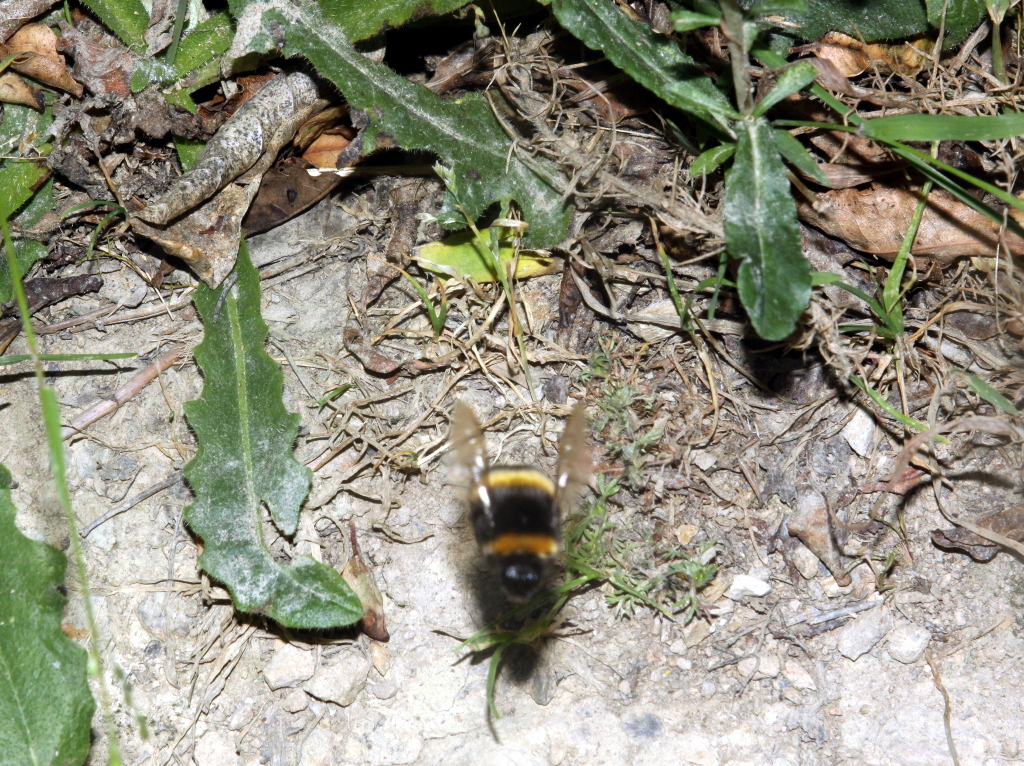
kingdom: Animalia
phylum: Arthropoda
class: Insecta
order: Hymenoptera
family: Apidae
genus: Bombus
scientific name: Bombus terrestris
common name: Buff-tailed bumblebee
